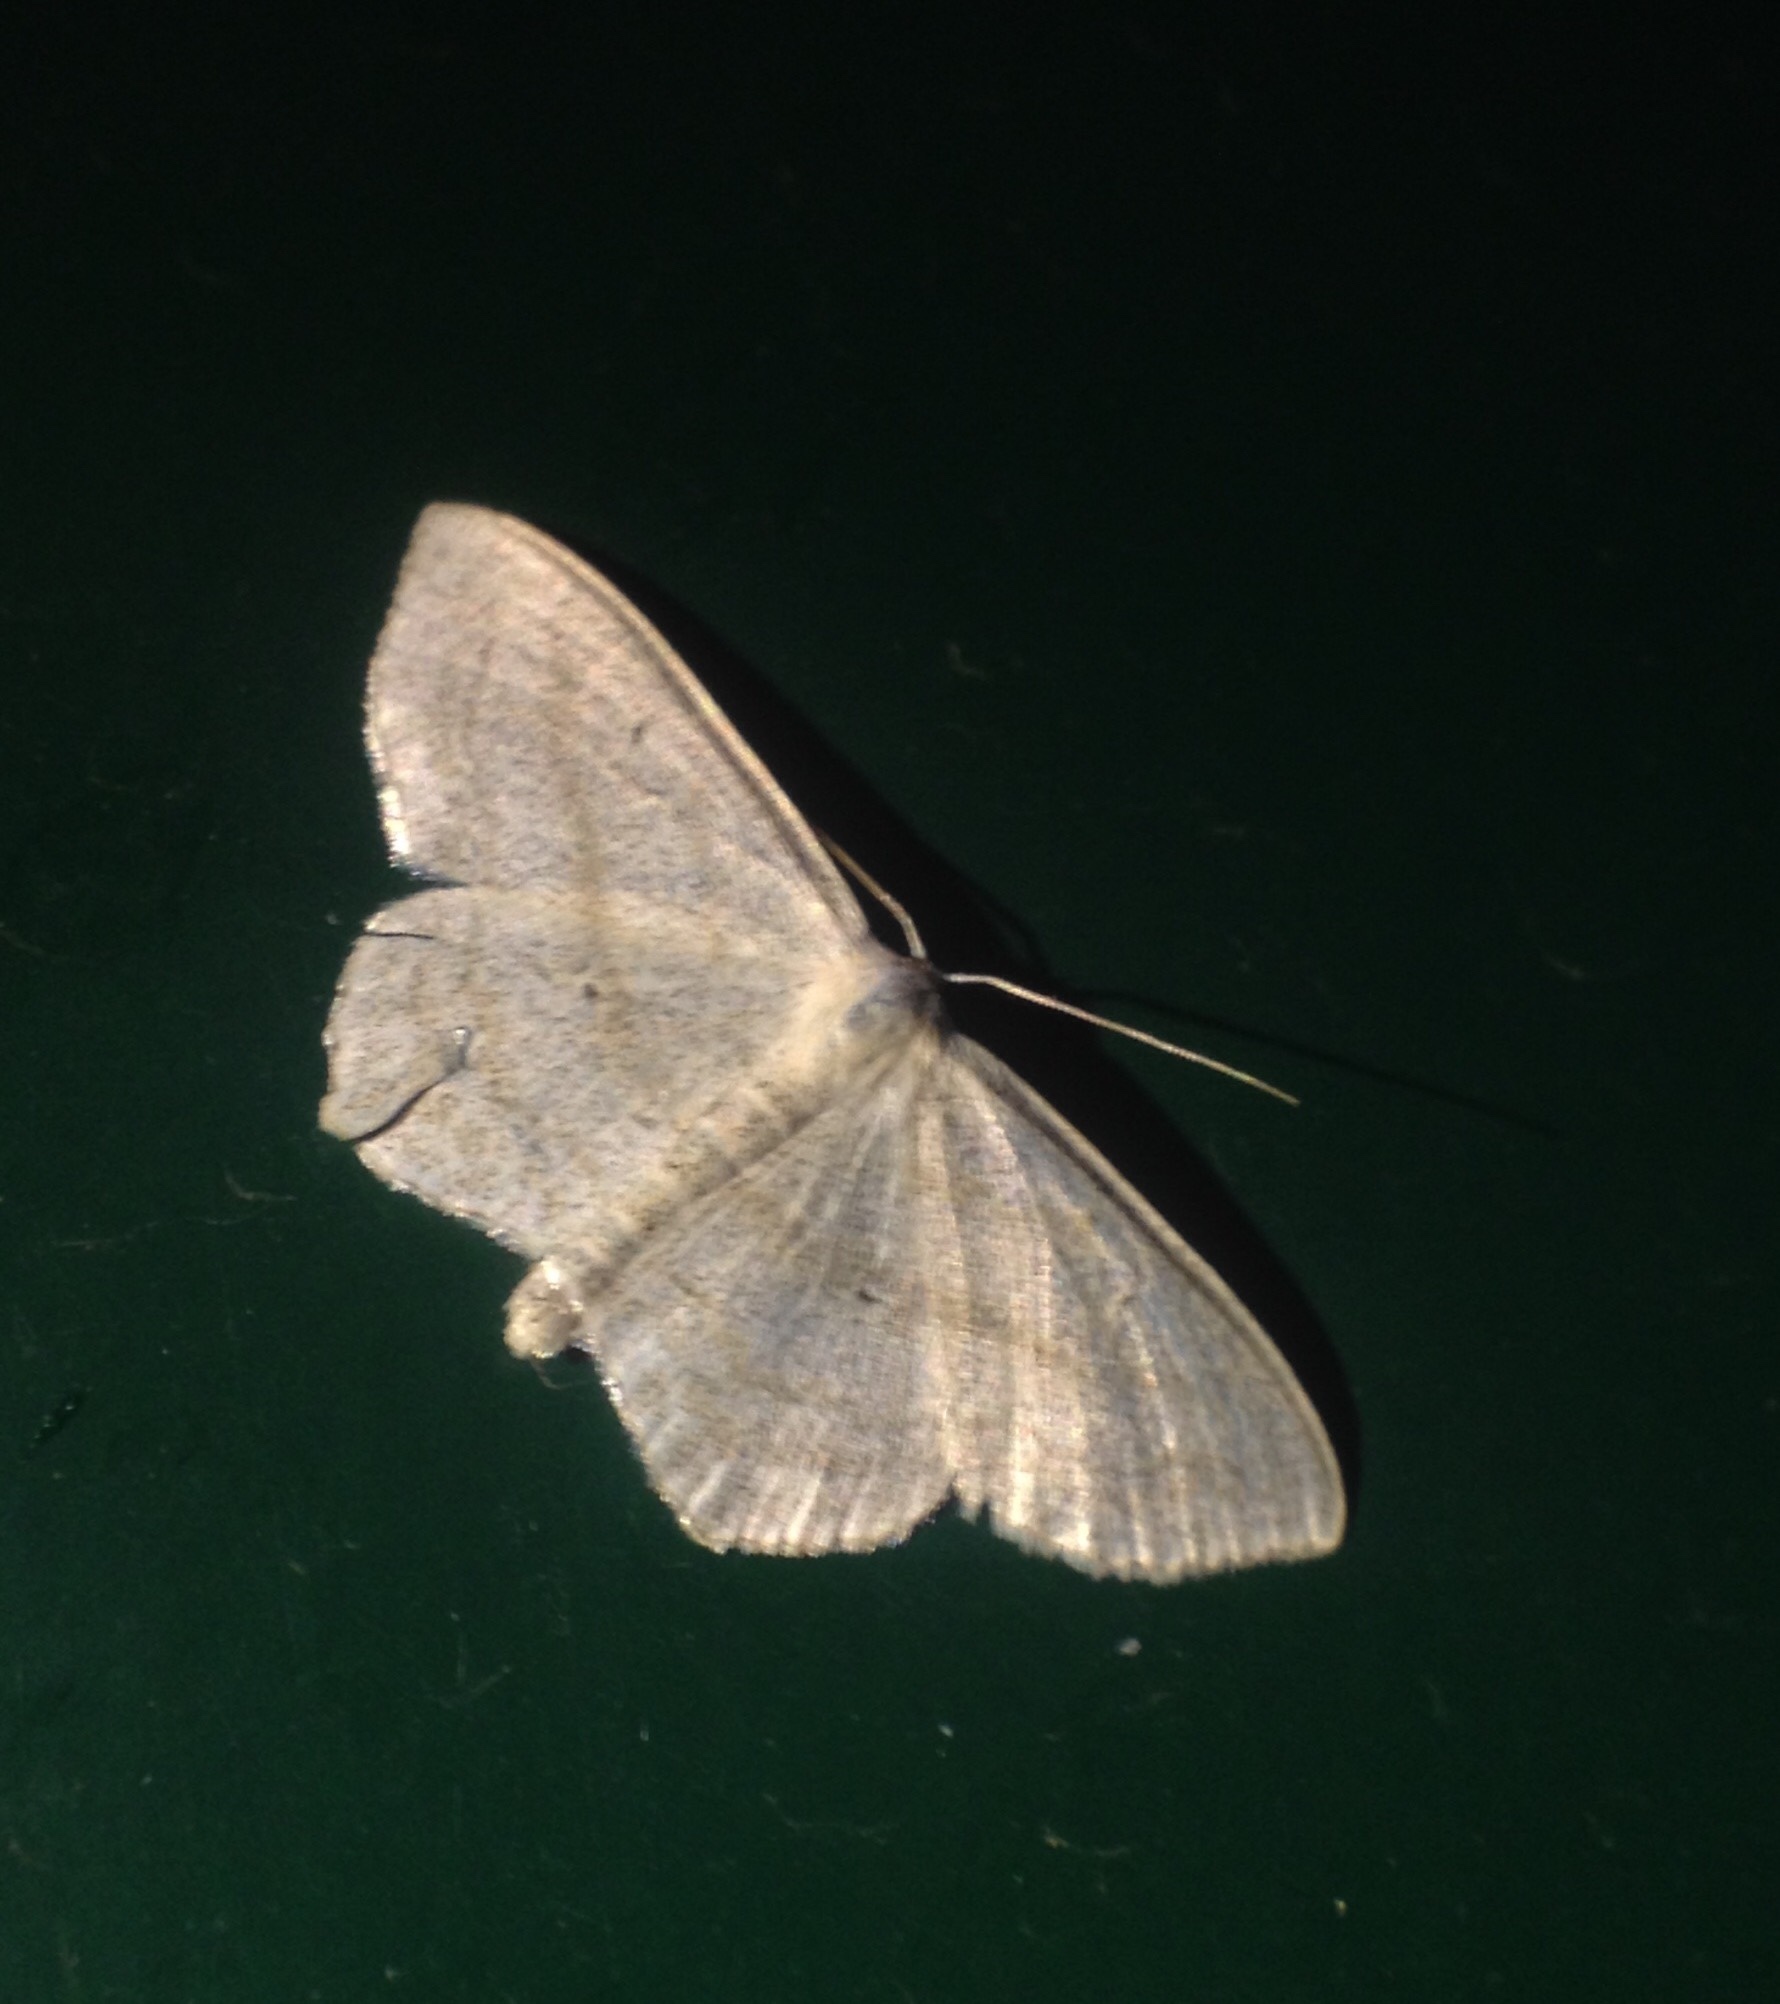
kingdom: Animalia
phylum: Arthropoda
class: Insecta
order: Lepidoptera
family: Geometridae
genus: Scopula
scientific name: Scopula nigropunctata
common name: Sub-angled wave
